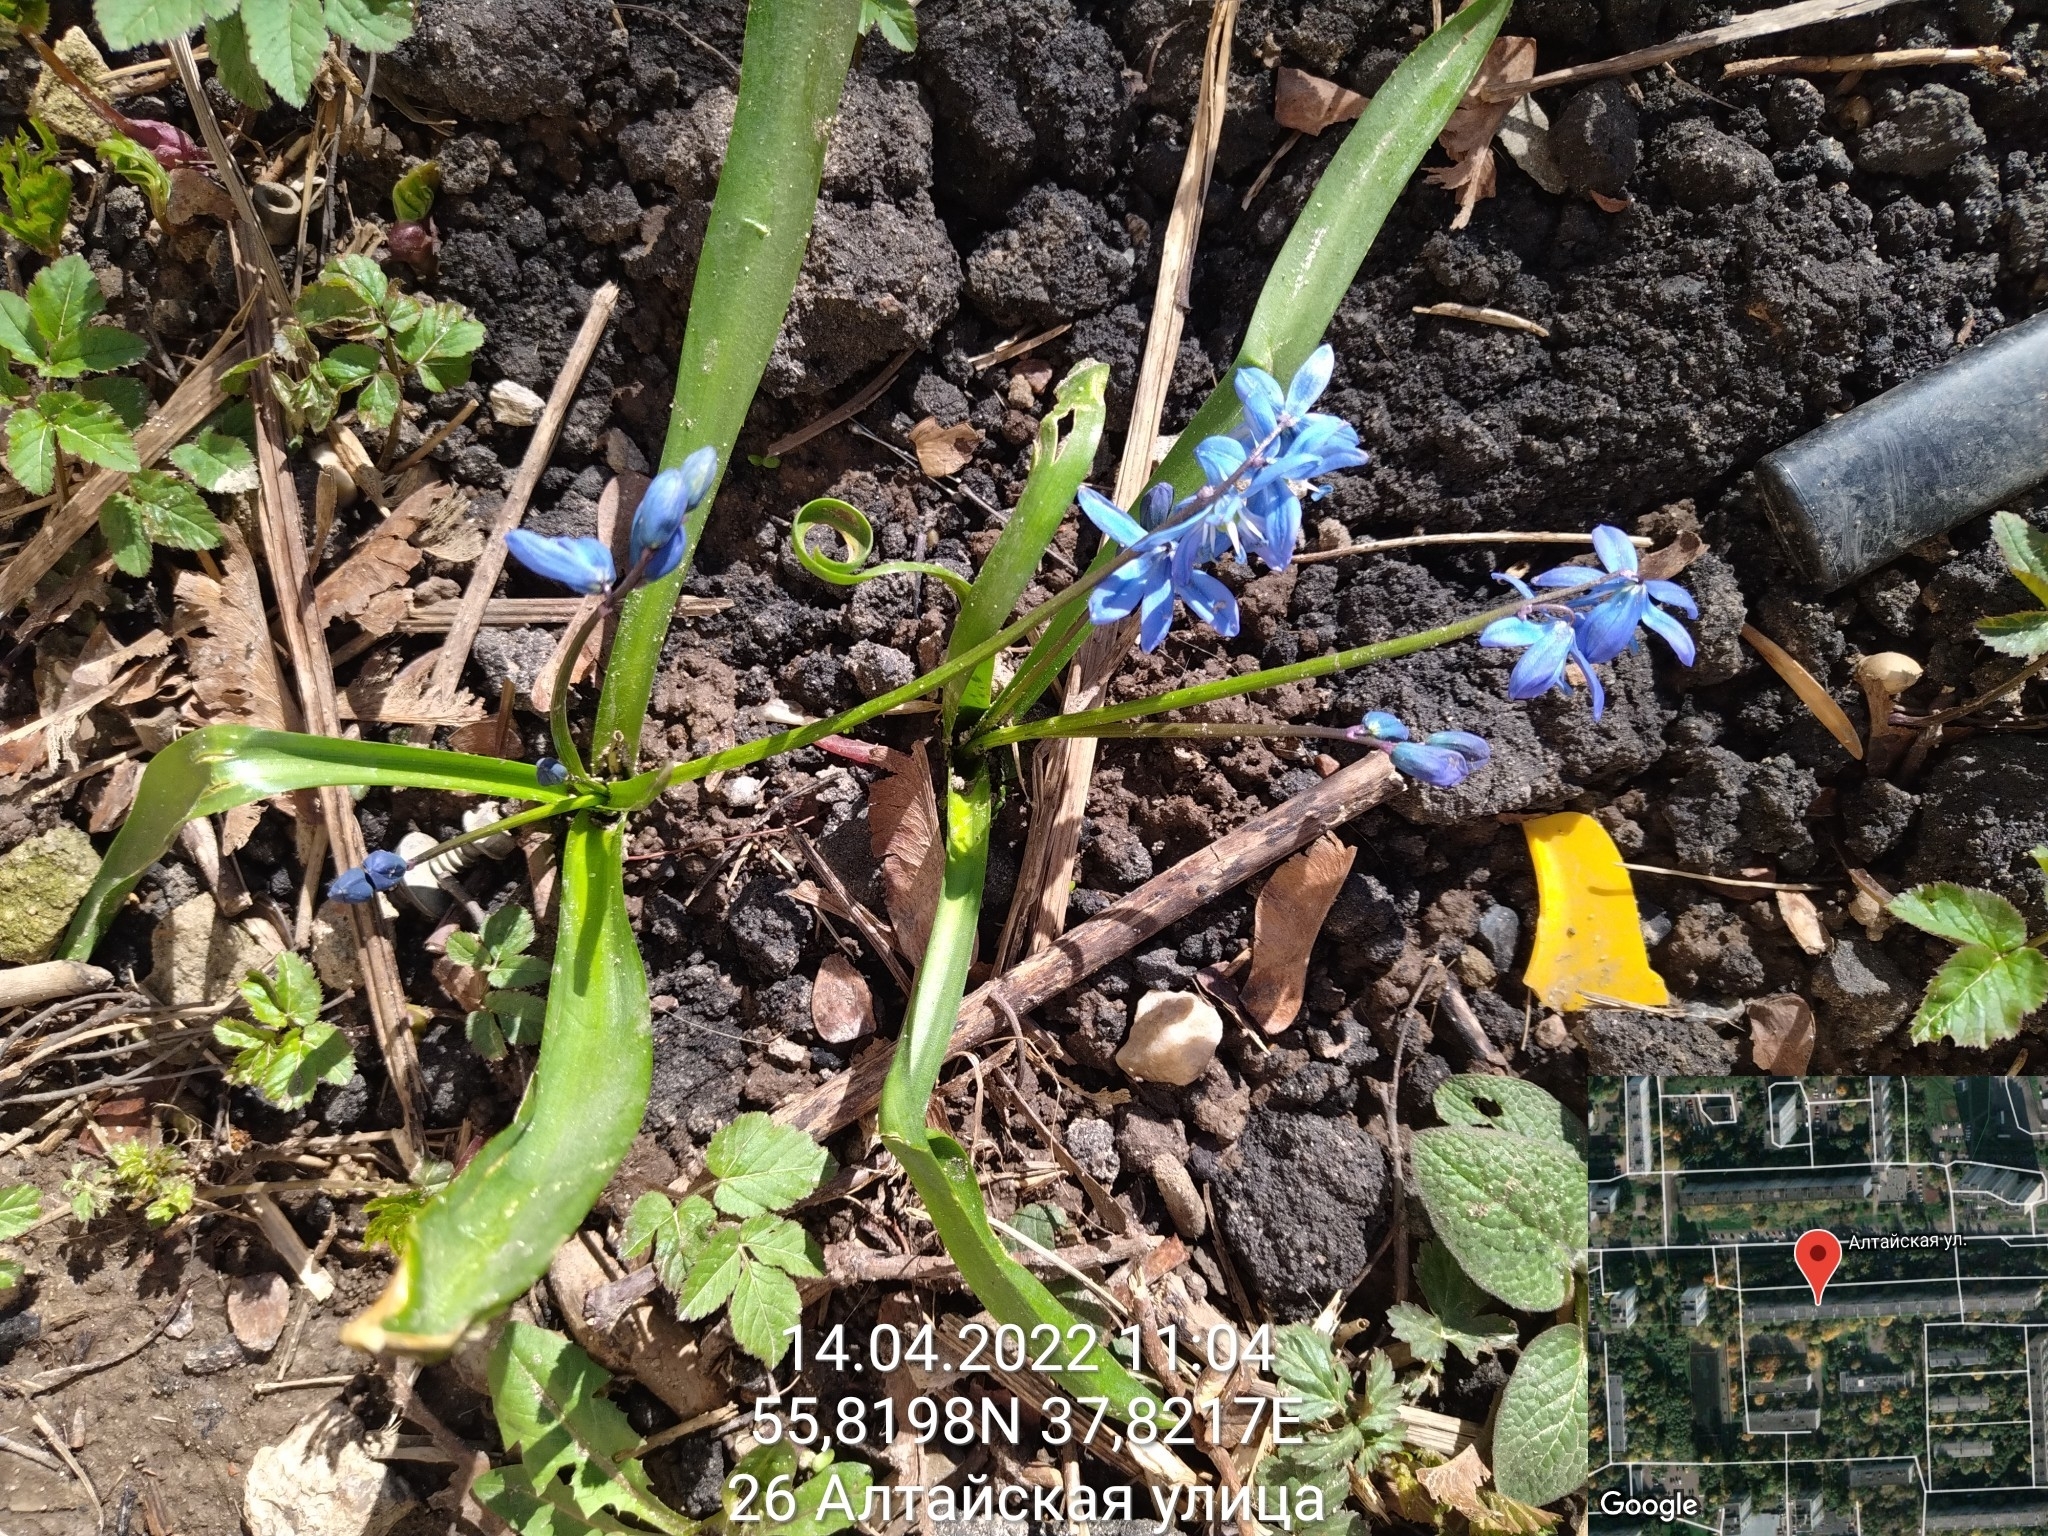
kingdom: Plantae
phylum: Tracheophyta
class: Liliopsida
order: Asparagales
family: Asparagaceae
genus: Scilla
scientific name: Scilla siberica
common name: Siberian squill
